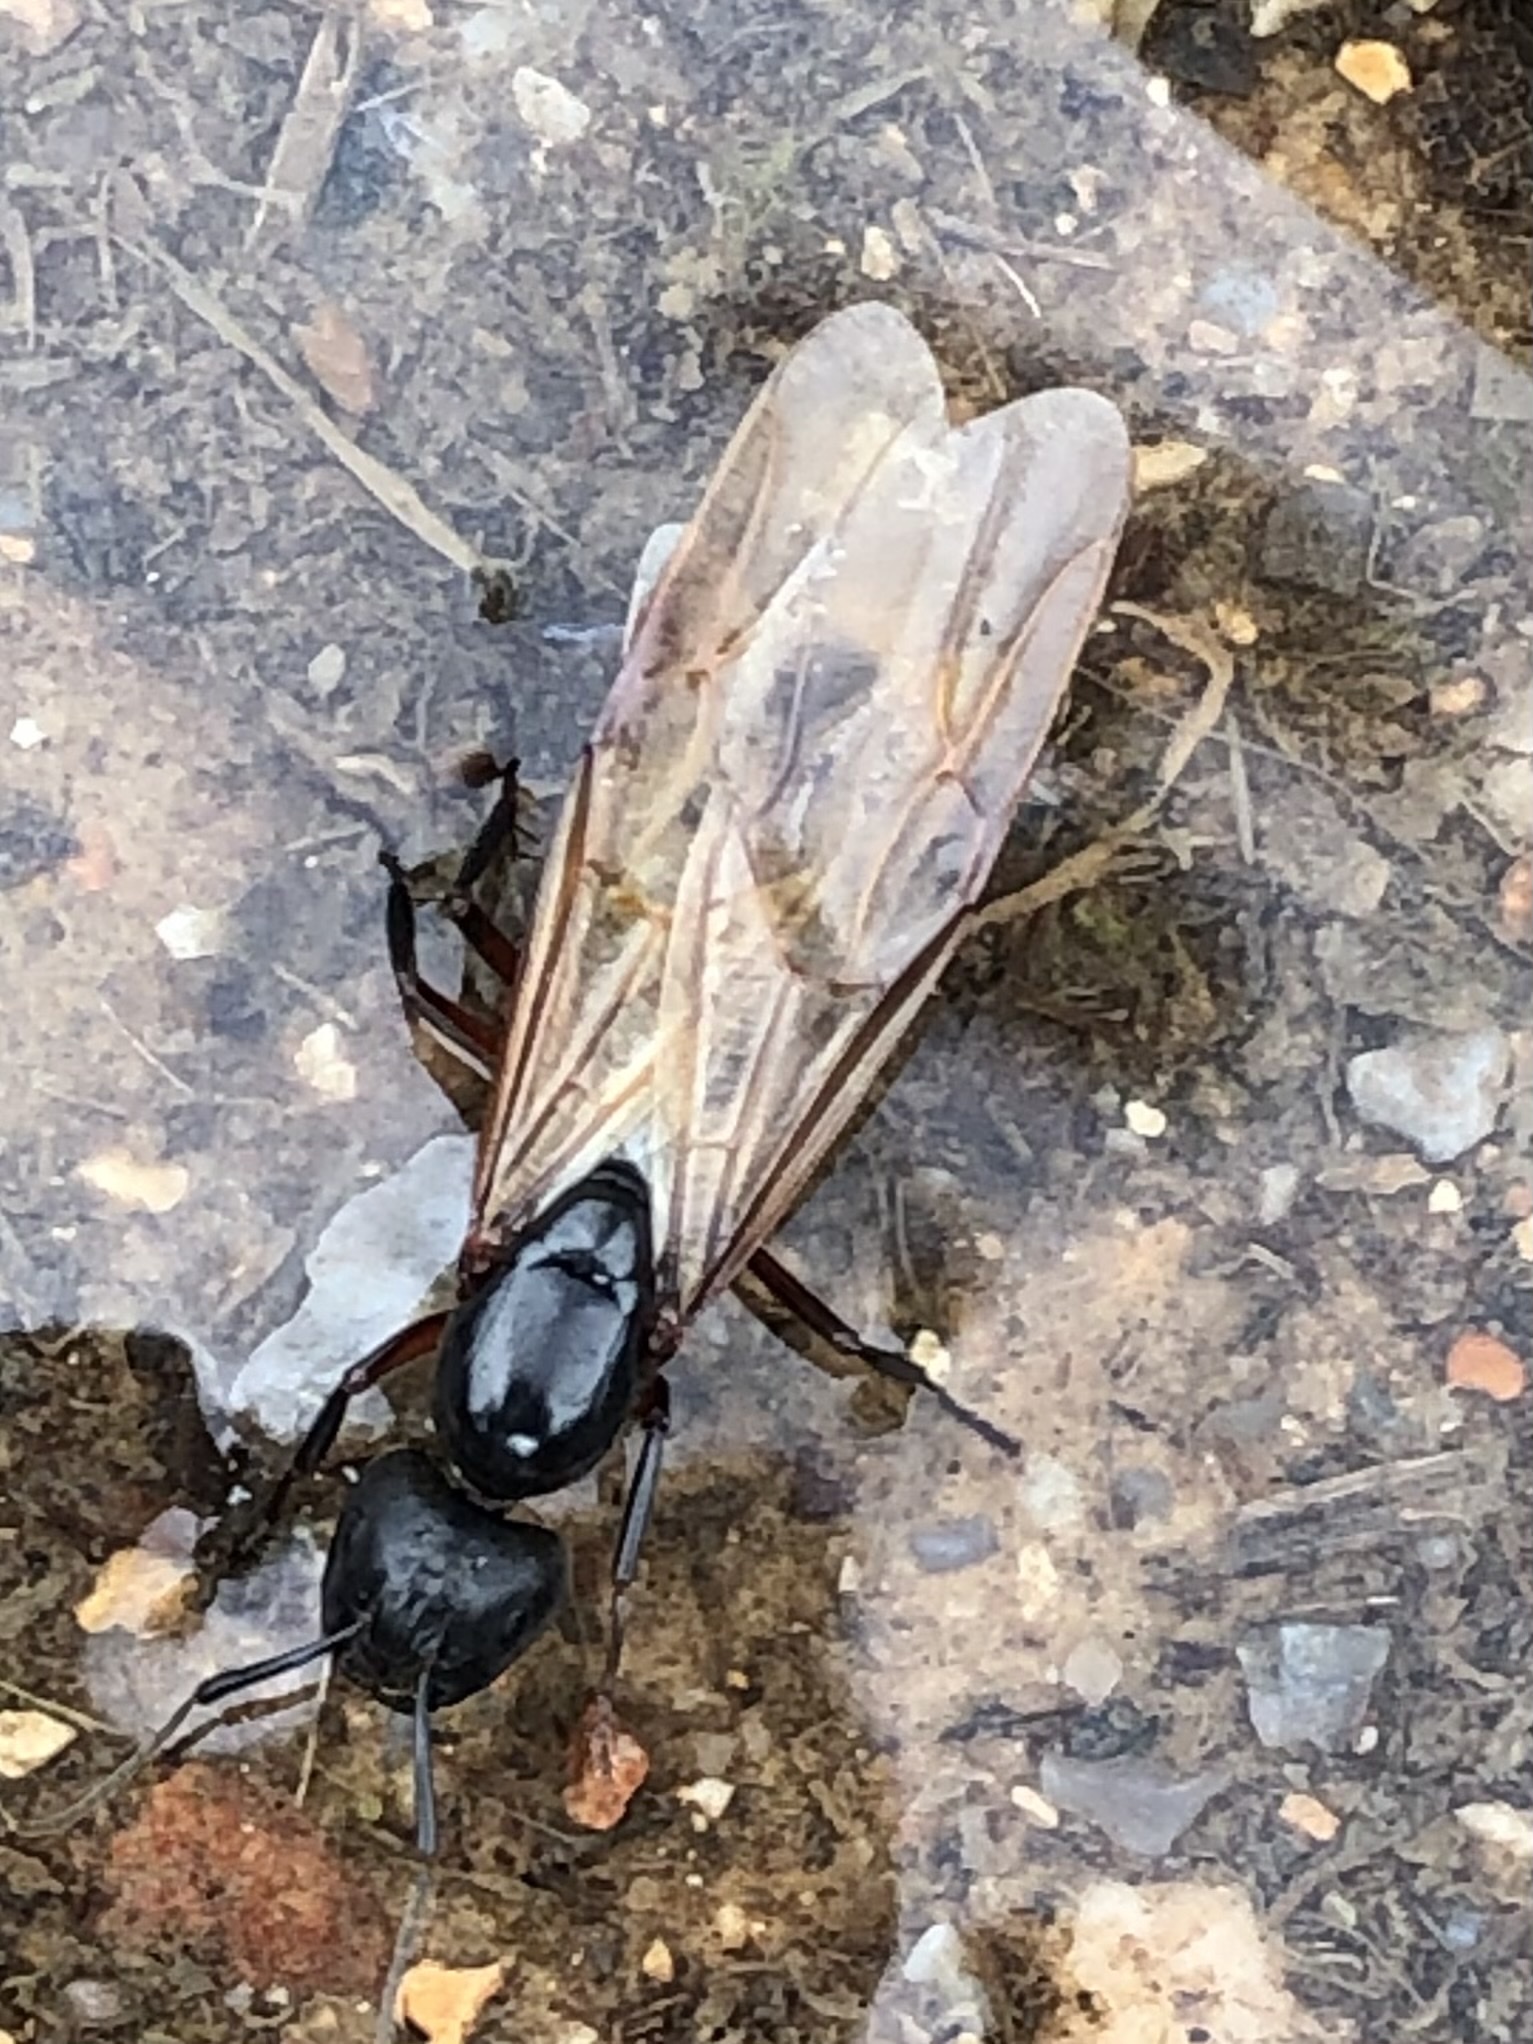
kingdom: Animalia
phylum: Arthropoda
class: Insecta
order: Hymenoptera
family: Formicidae
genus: Camponotus
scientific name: Camponotus chromaiodes
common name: Red carpenter ant
